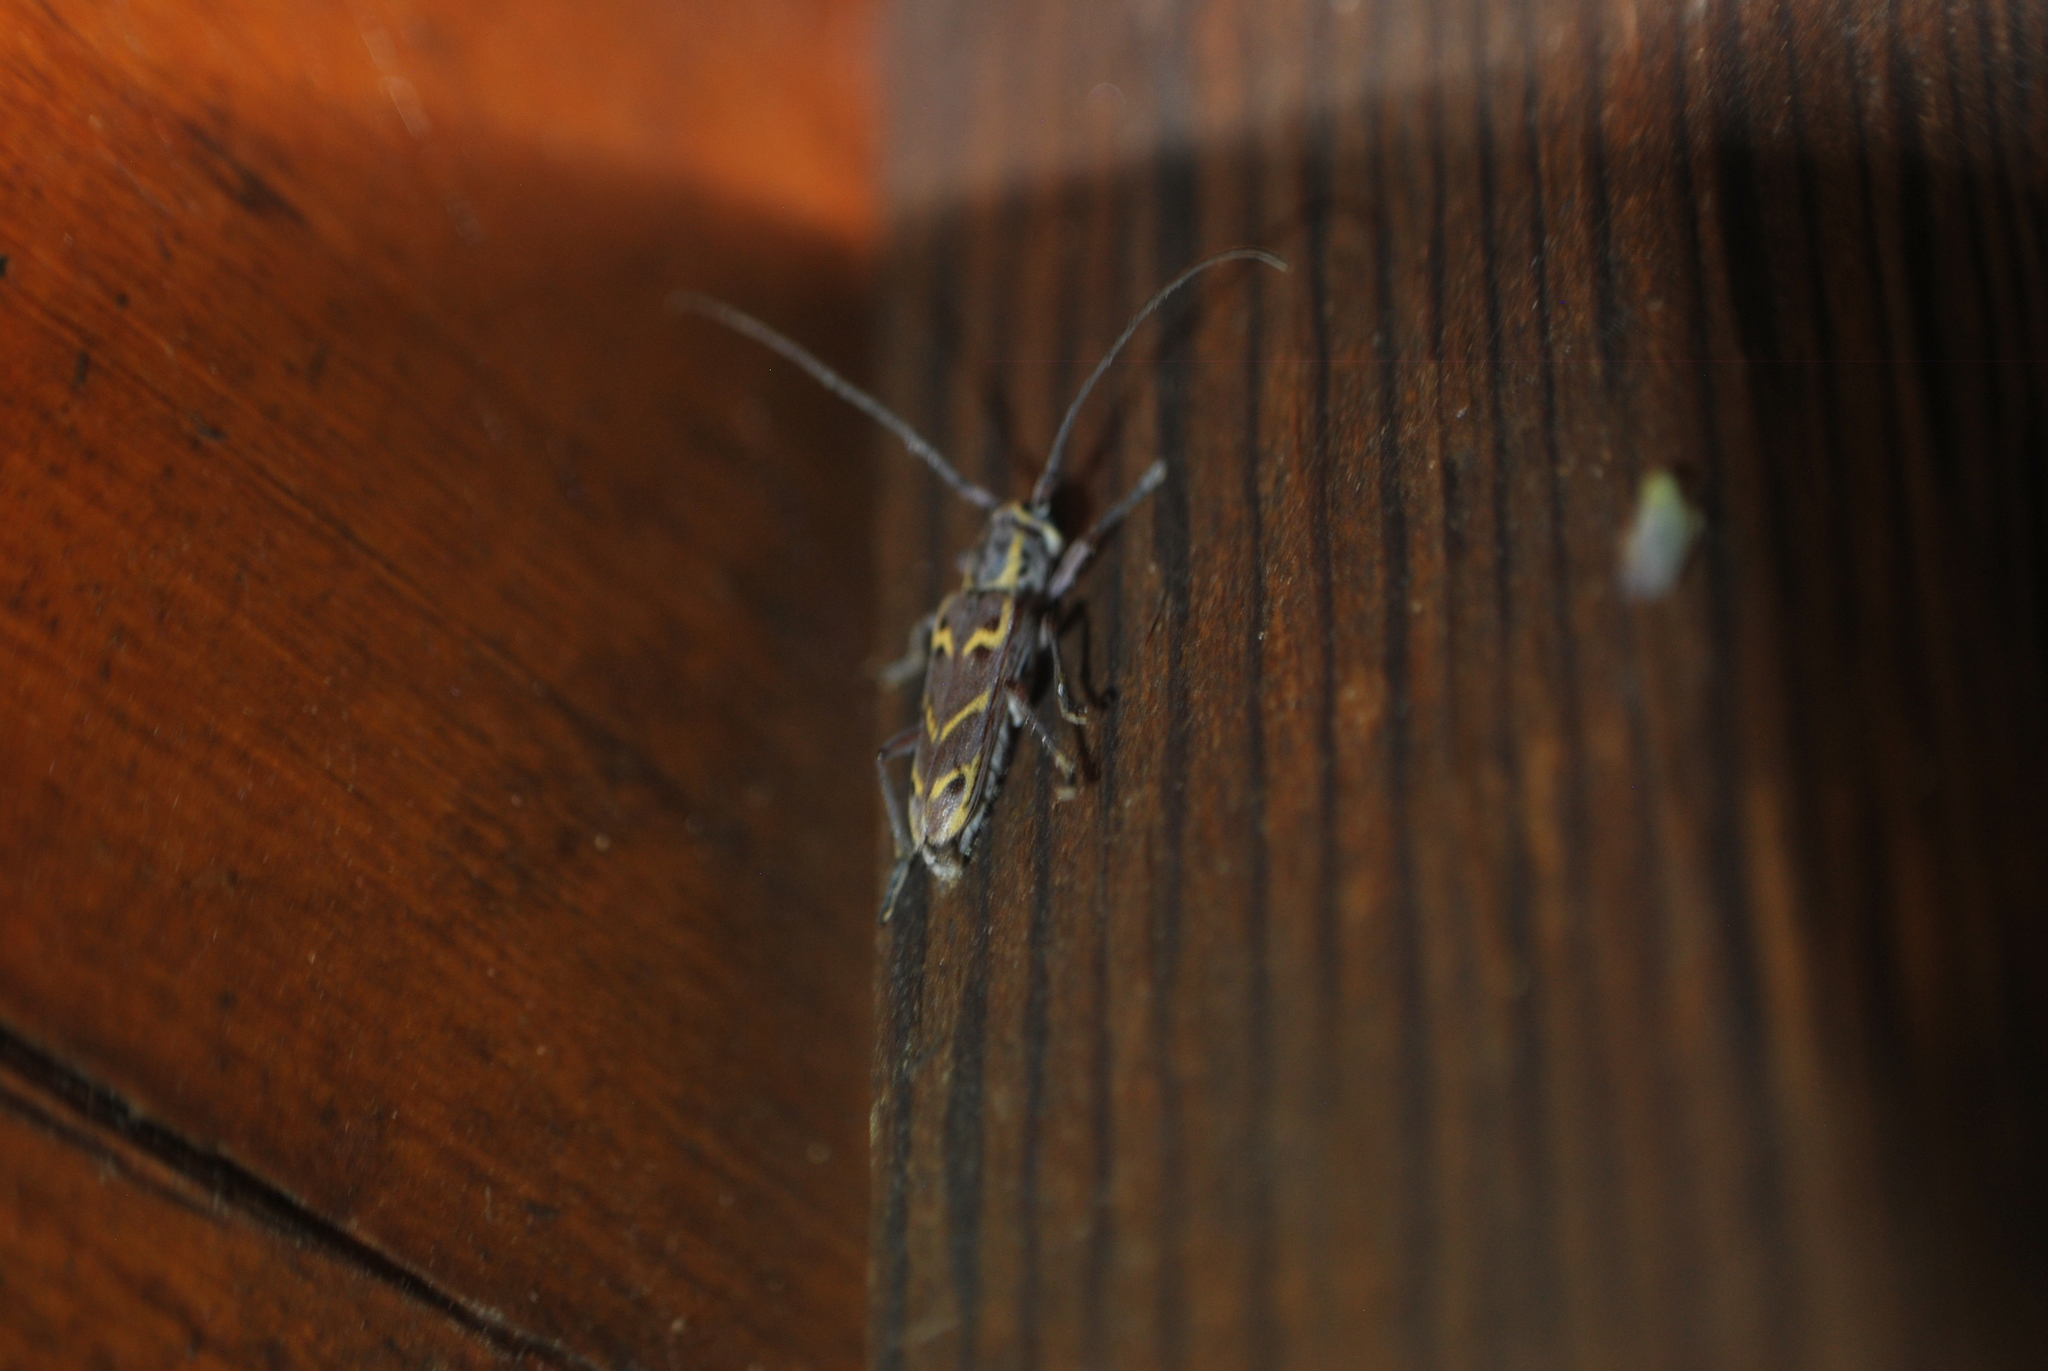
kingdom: Animalia
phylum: Arthropoda
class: Insecta
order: Coleoptera
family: Cerambycidae
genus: Saperda
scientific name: Saperda tridentata
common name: Elm borer
